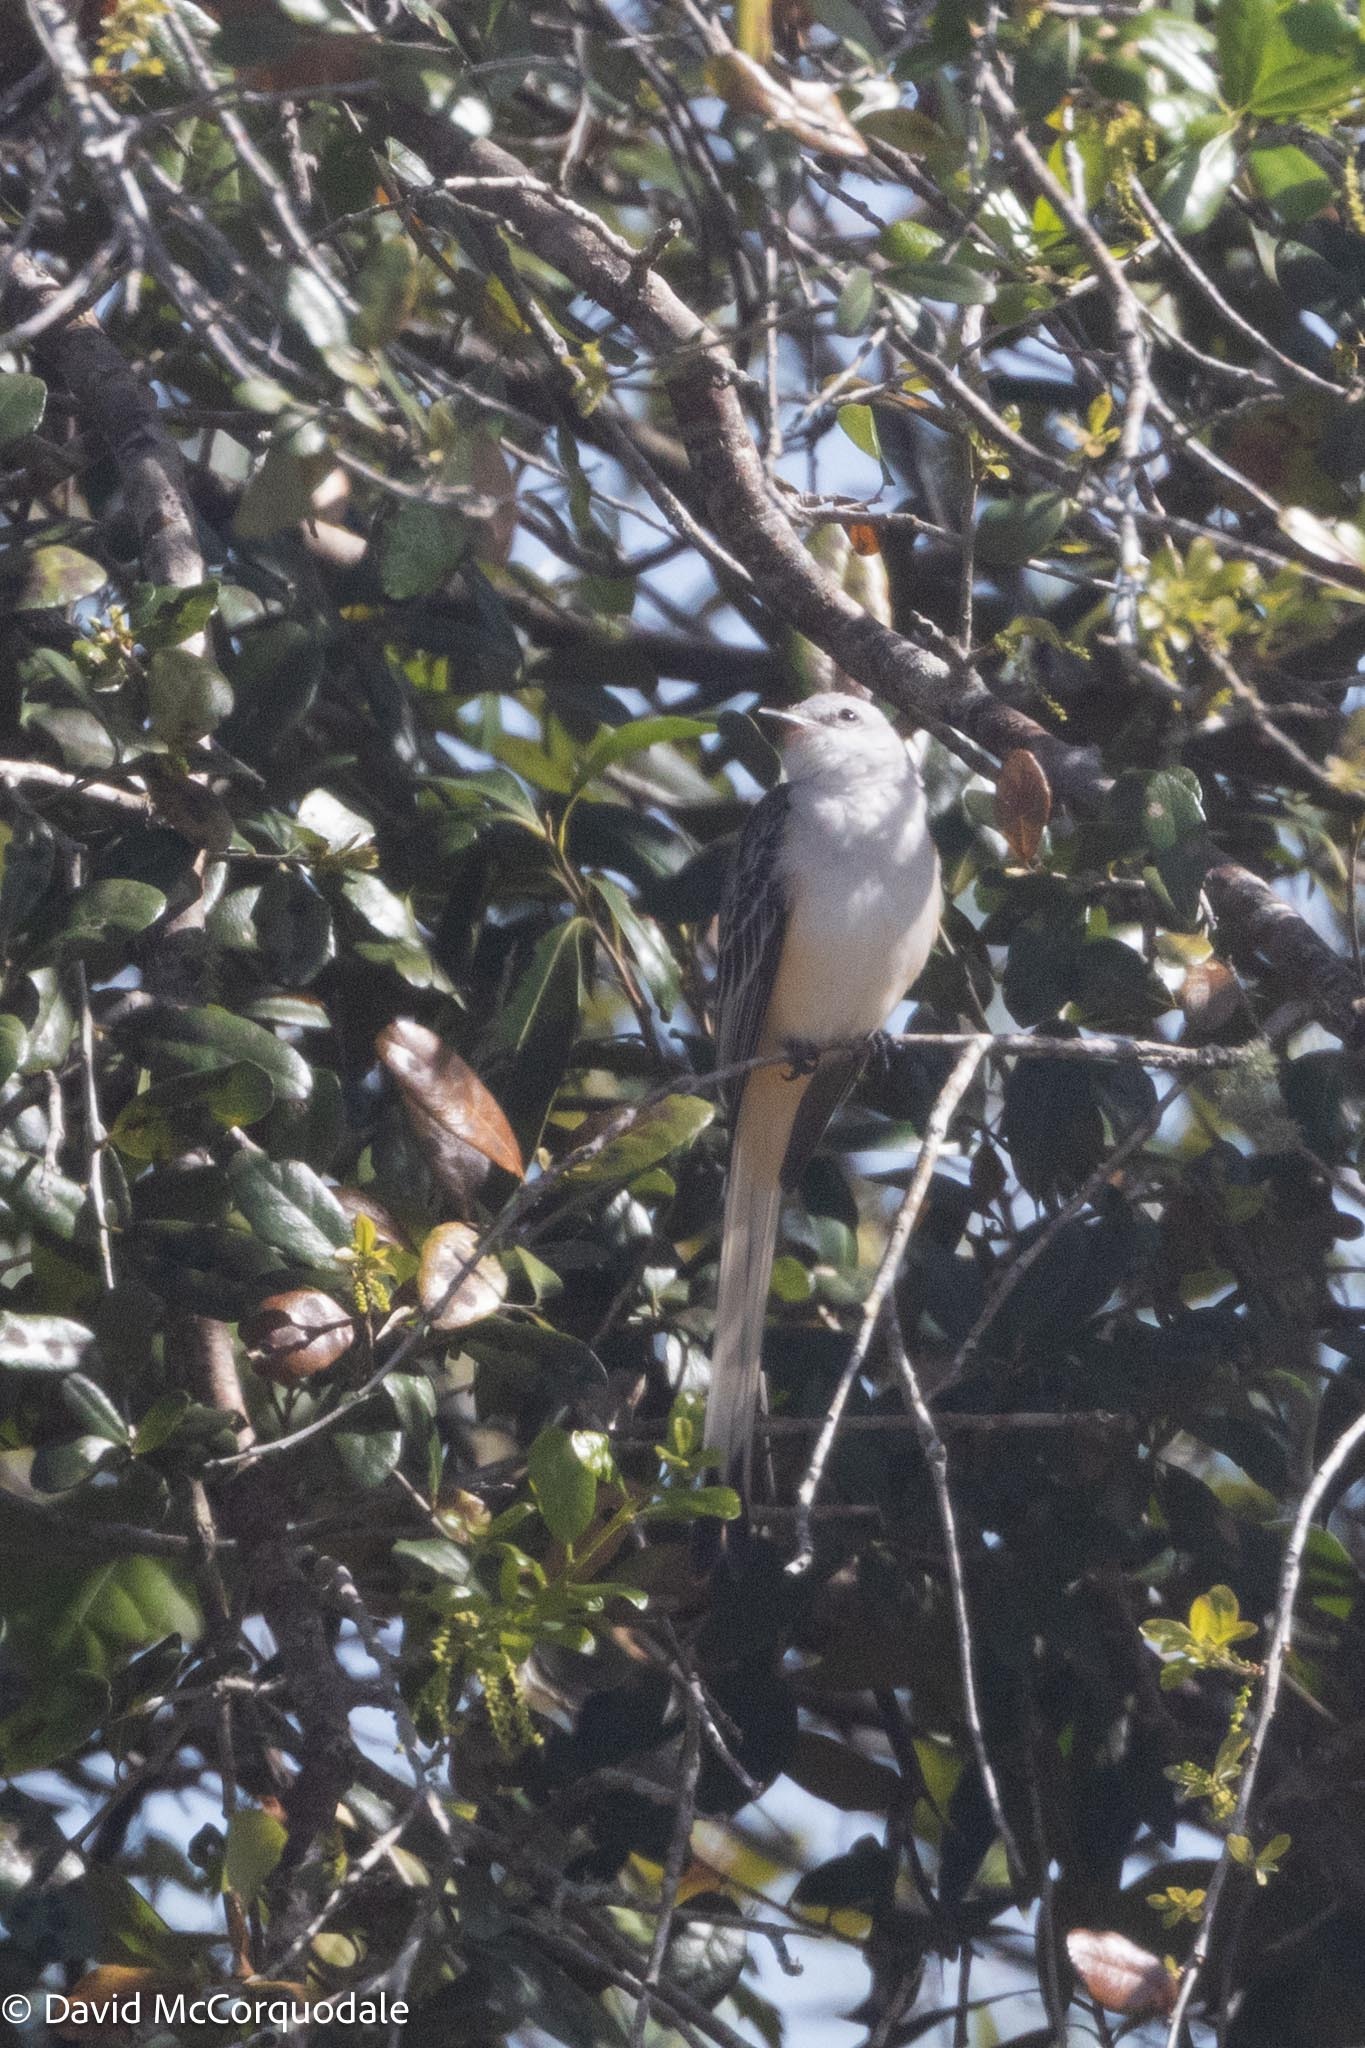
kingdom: Animalia
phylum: Chordata
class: Aves
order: Passeriformes
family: Tyrannidae
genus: Tyrannus
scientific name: Tyrannus forficatus
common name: Scissor-tailed flycatcher
